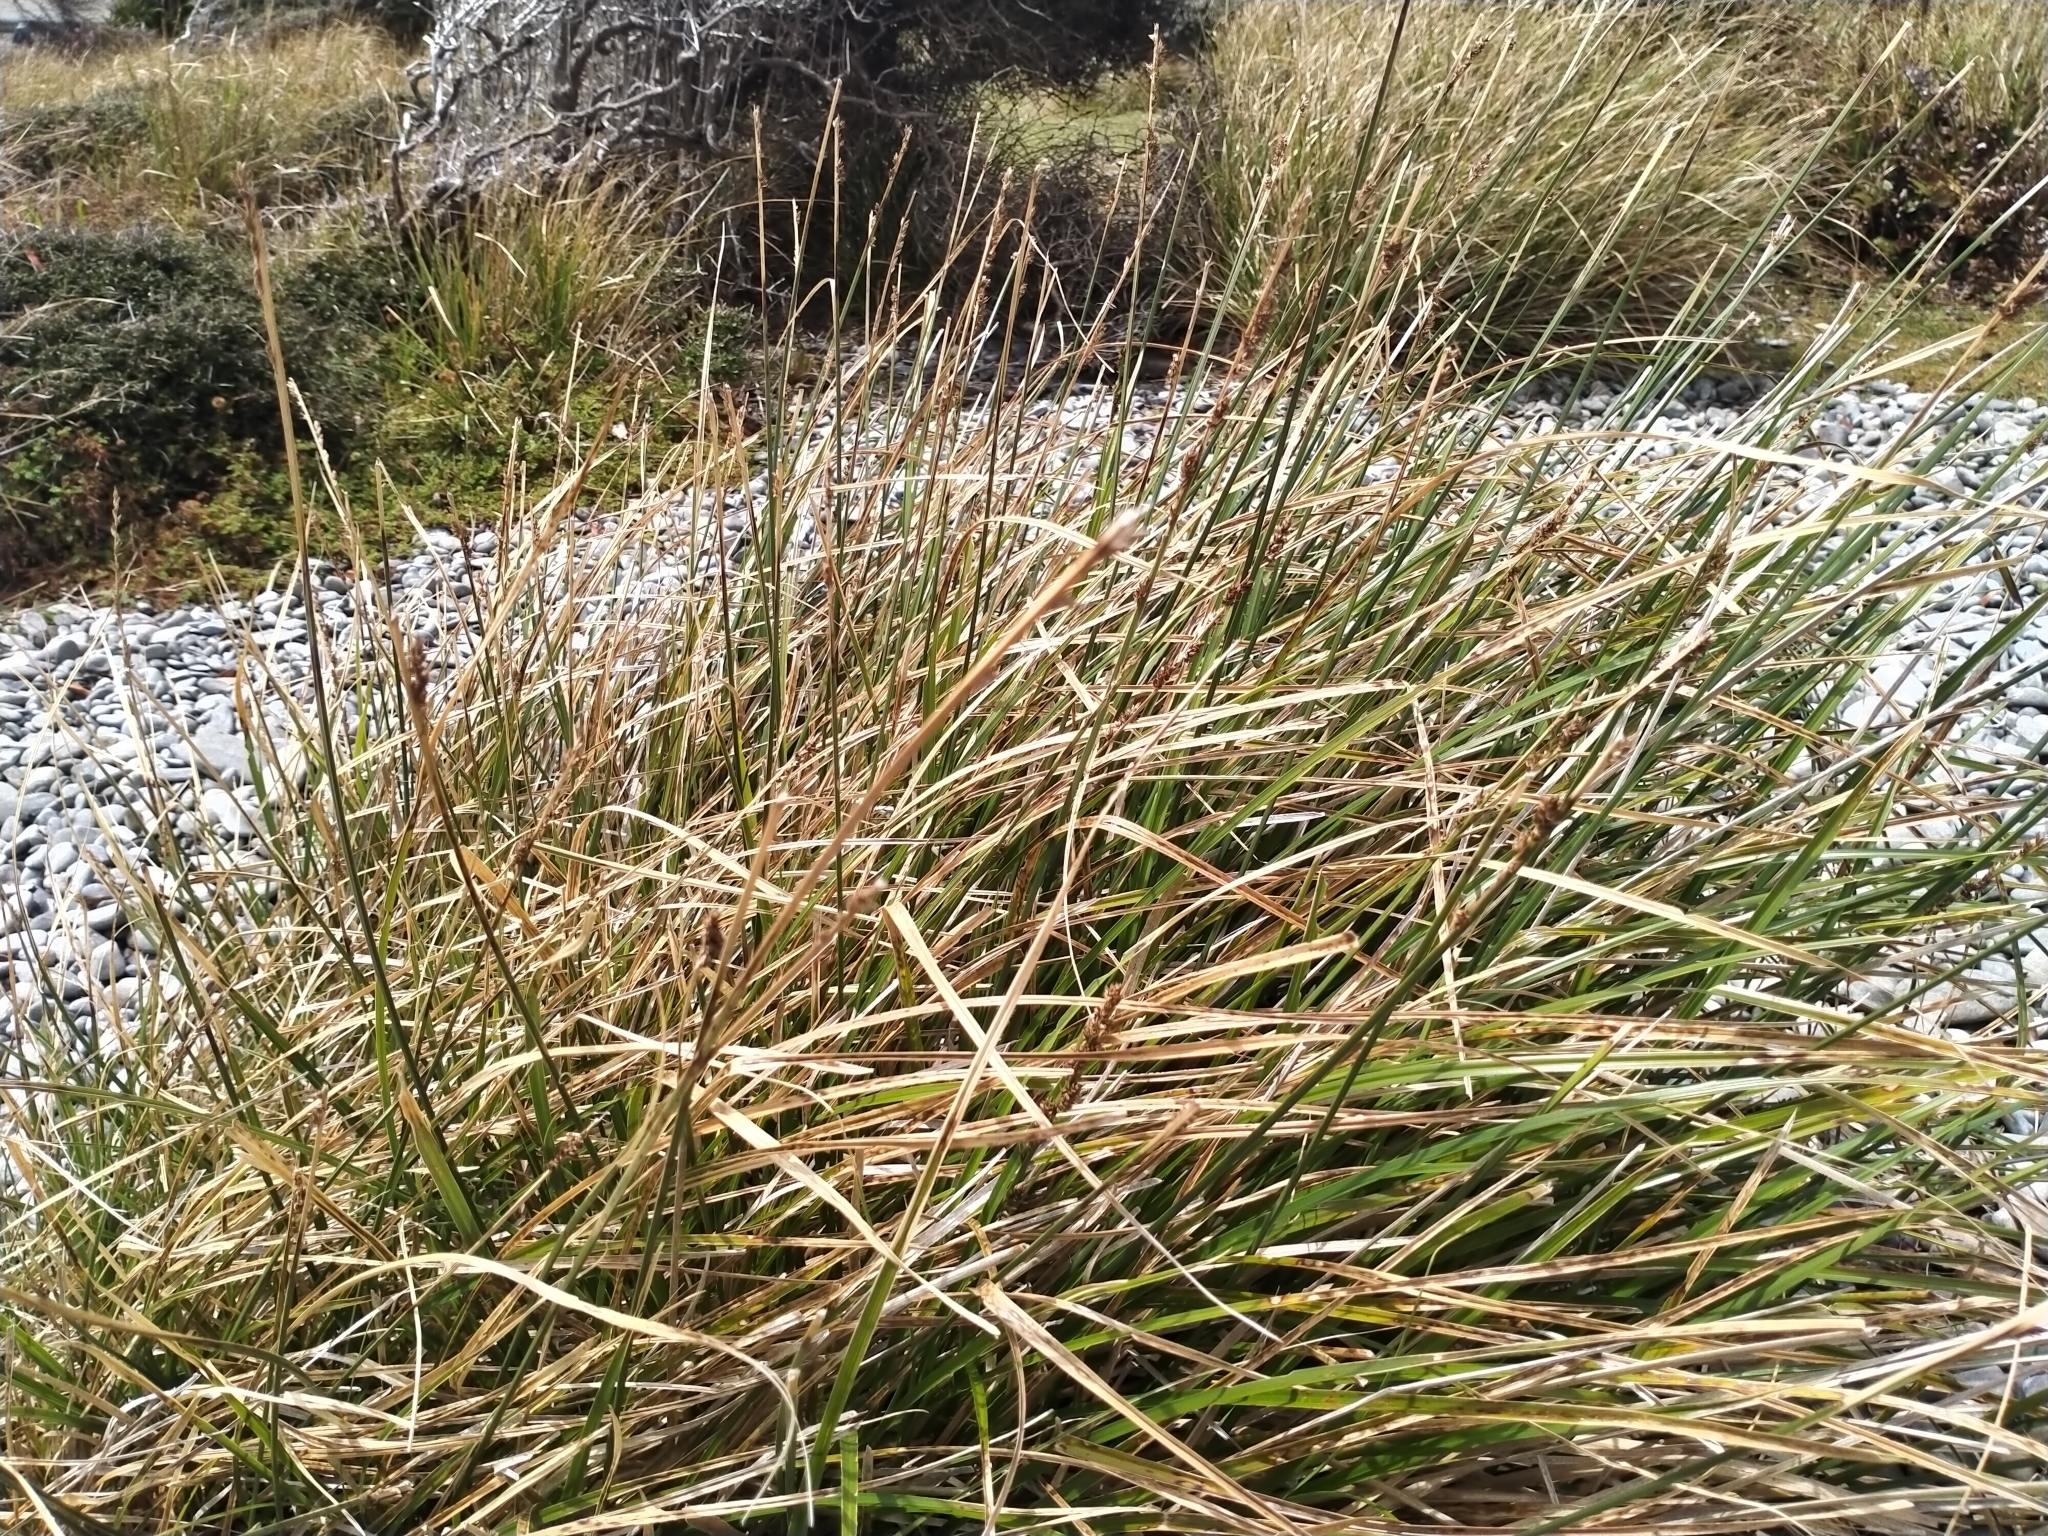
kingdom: Plantae
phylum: Tracheophyta
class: Liliopsida
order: Poales
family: Cyperaceae
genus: Carex
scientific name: Carex appressa
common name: Tussock sedge
